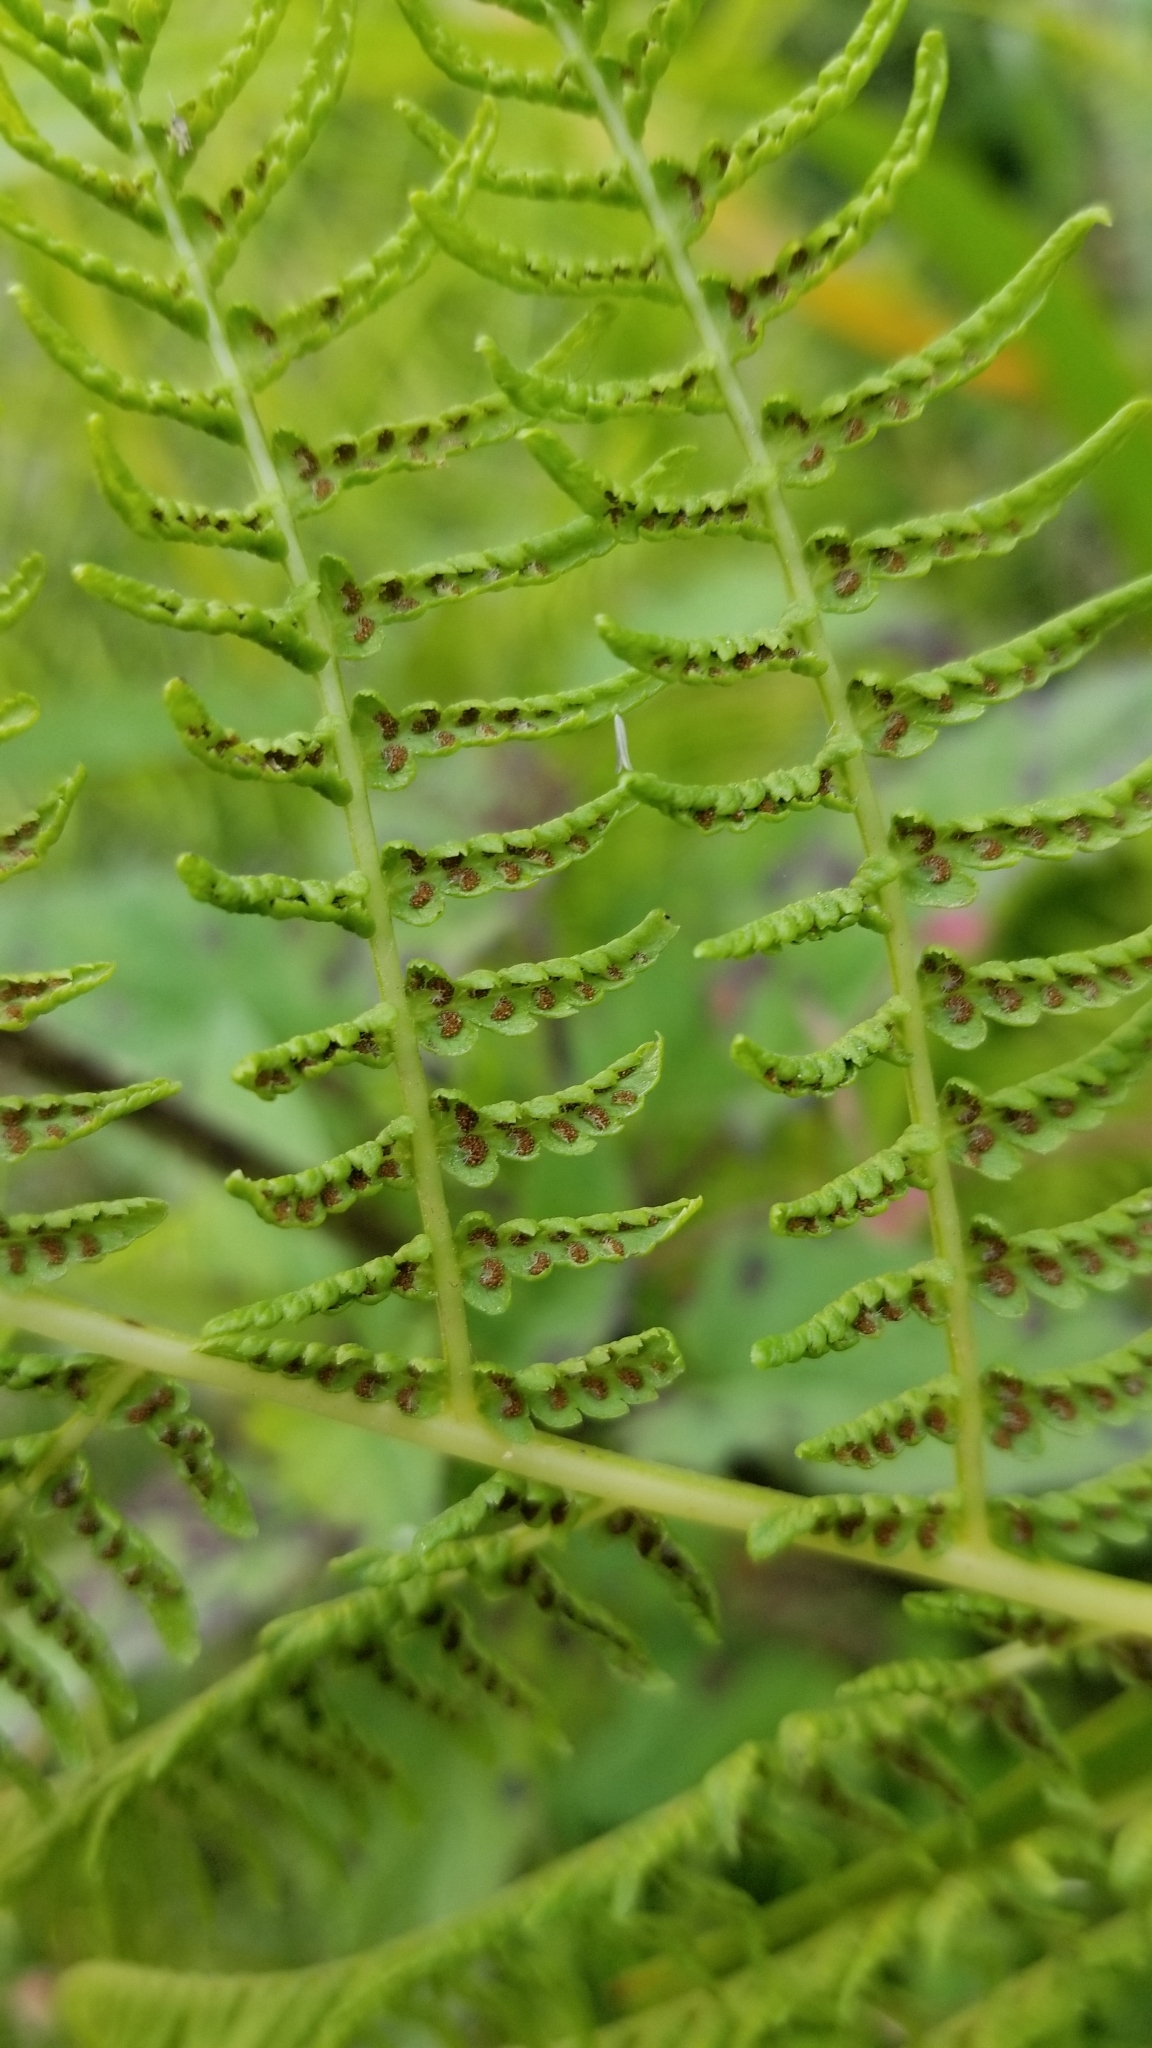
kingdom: Plantae
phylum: Tracheophyta
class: Polypodiopsida
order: Polypodiales
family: Athyriaceae
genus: Athyrium
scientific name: Athyrium filix-femina
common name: Lady fern
